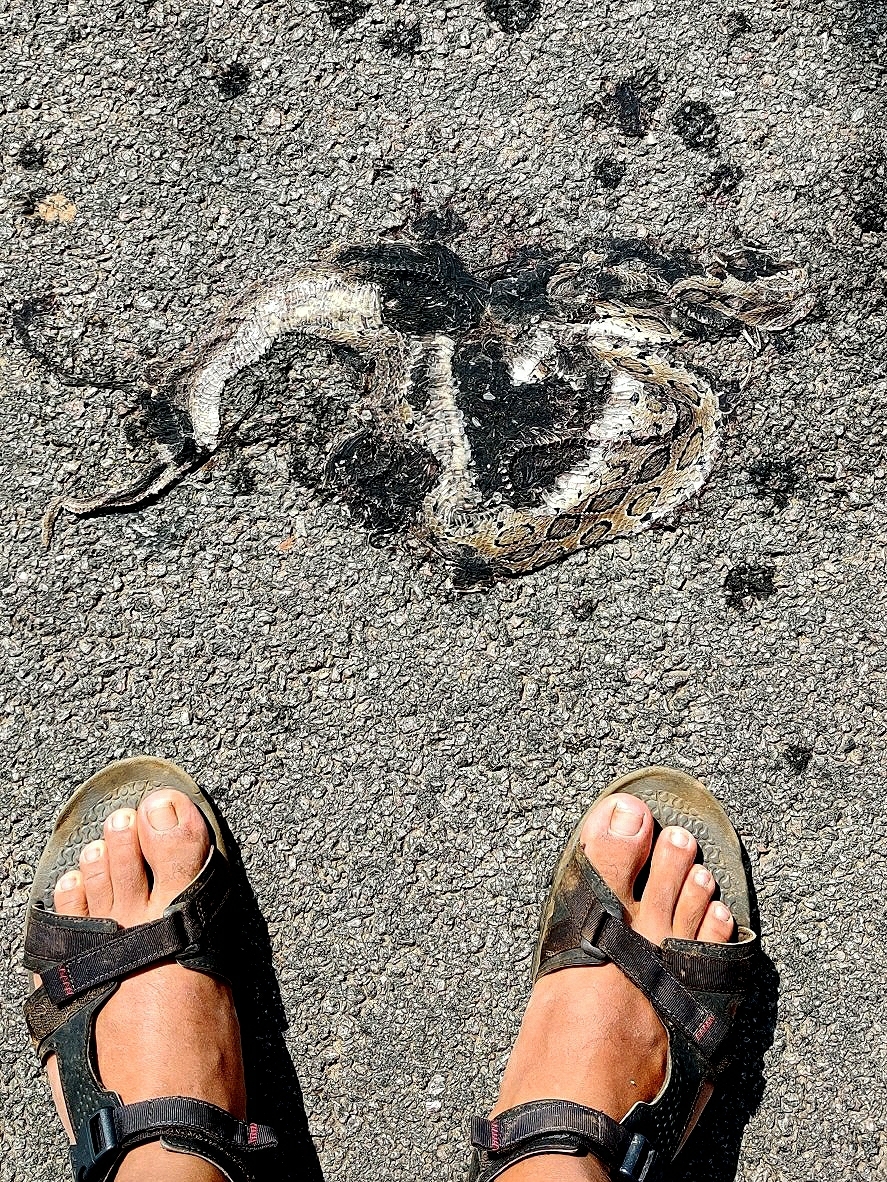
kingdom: Animalia
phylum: Chordata
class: Squamata
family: Viperidae
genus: Daboia
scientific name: Daboia russelii
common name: Western russel’s viper
